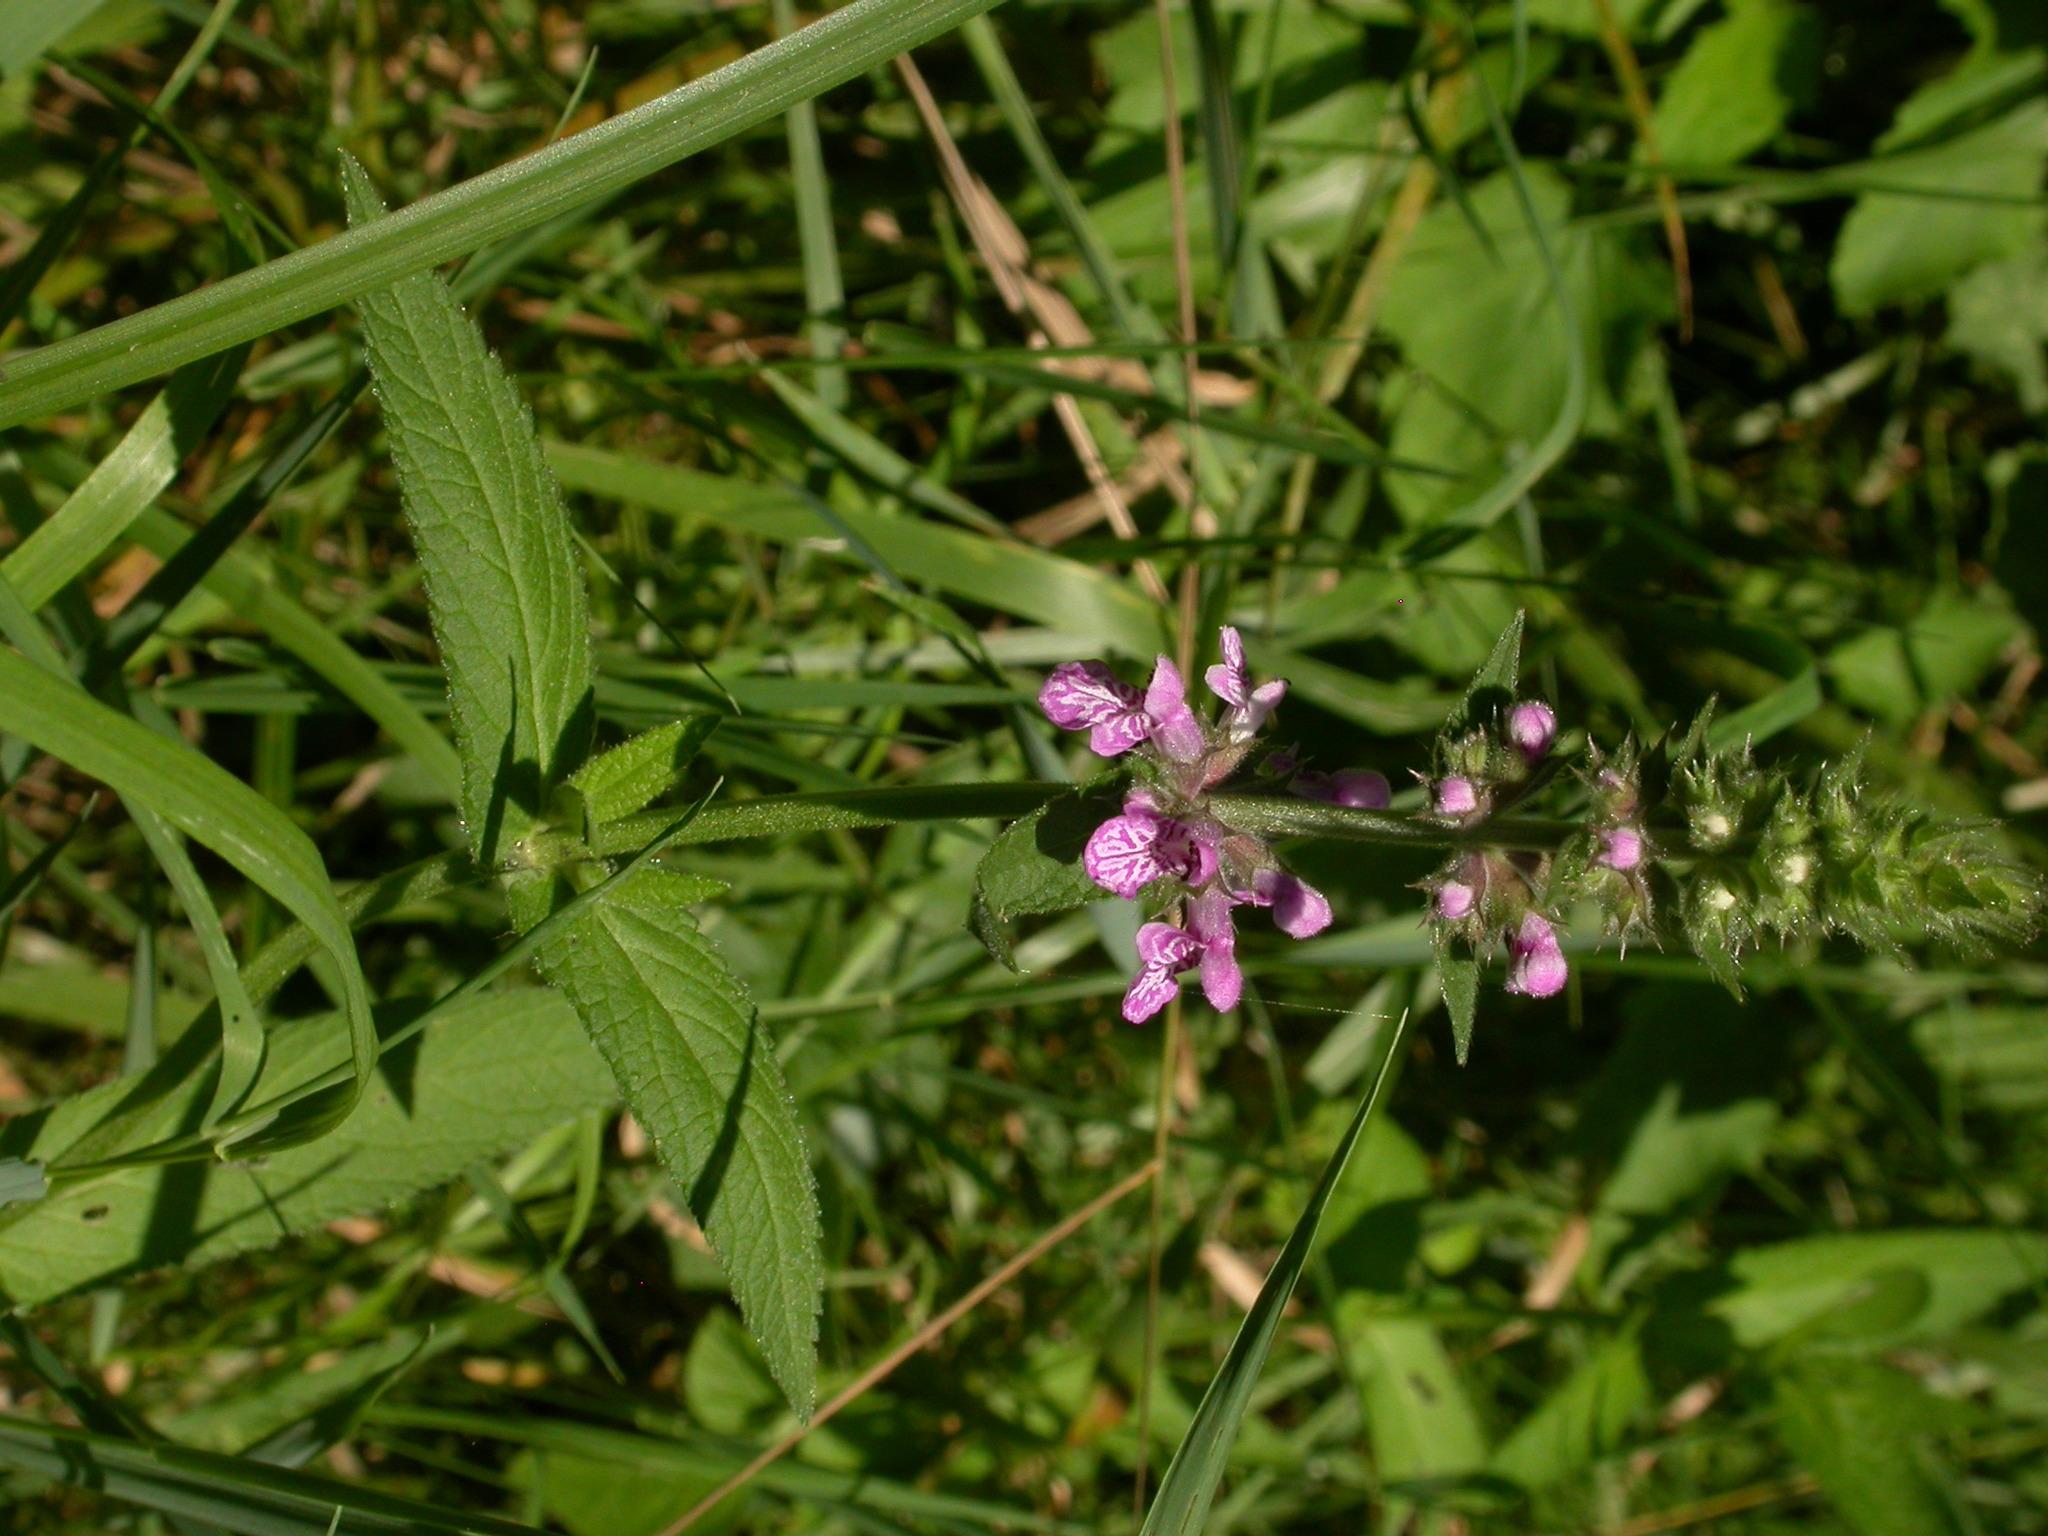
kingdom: Plantae
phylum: Tracheophyta
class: Magnoliopsida
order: Lamiales
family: Lamiaceae
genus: Stachys
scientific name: Stachys palustris
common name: Marsh woundwort
